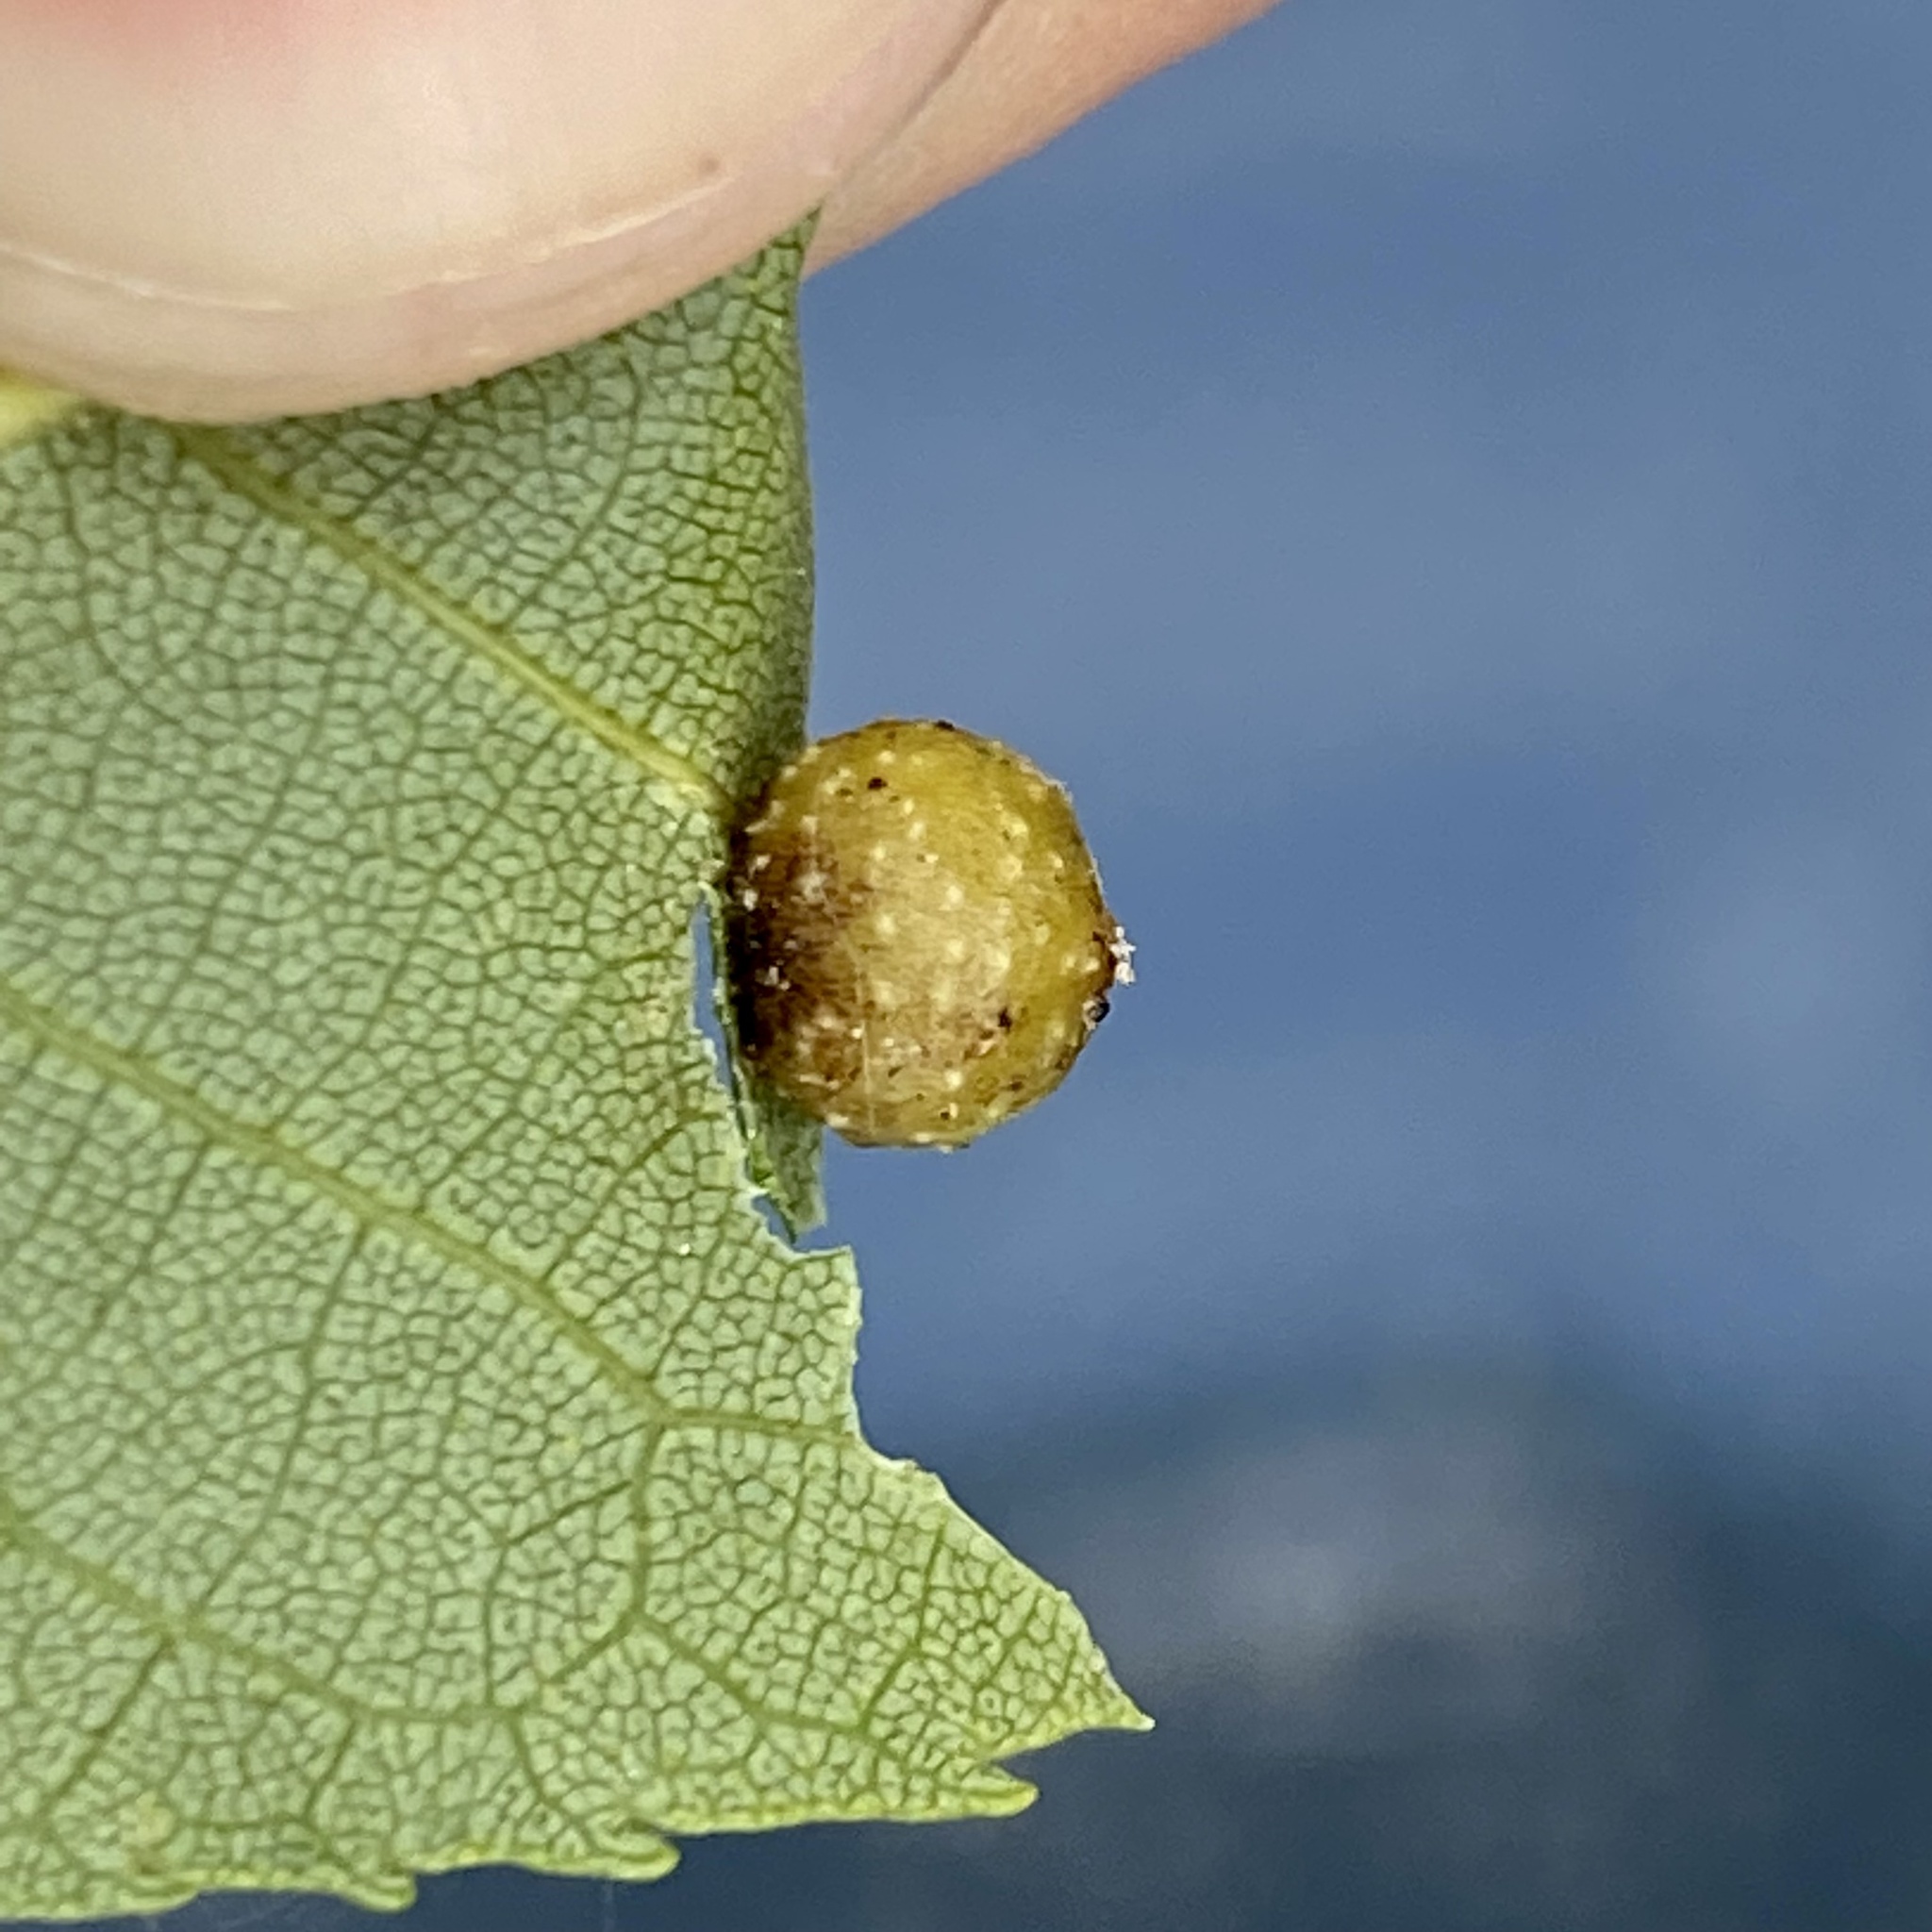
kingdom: Animalia
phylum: Arthropoda
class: Insecta
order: Diptera
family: Cecidomyiidae
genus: Caryomyia
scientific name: Caryomyia tuberculata
